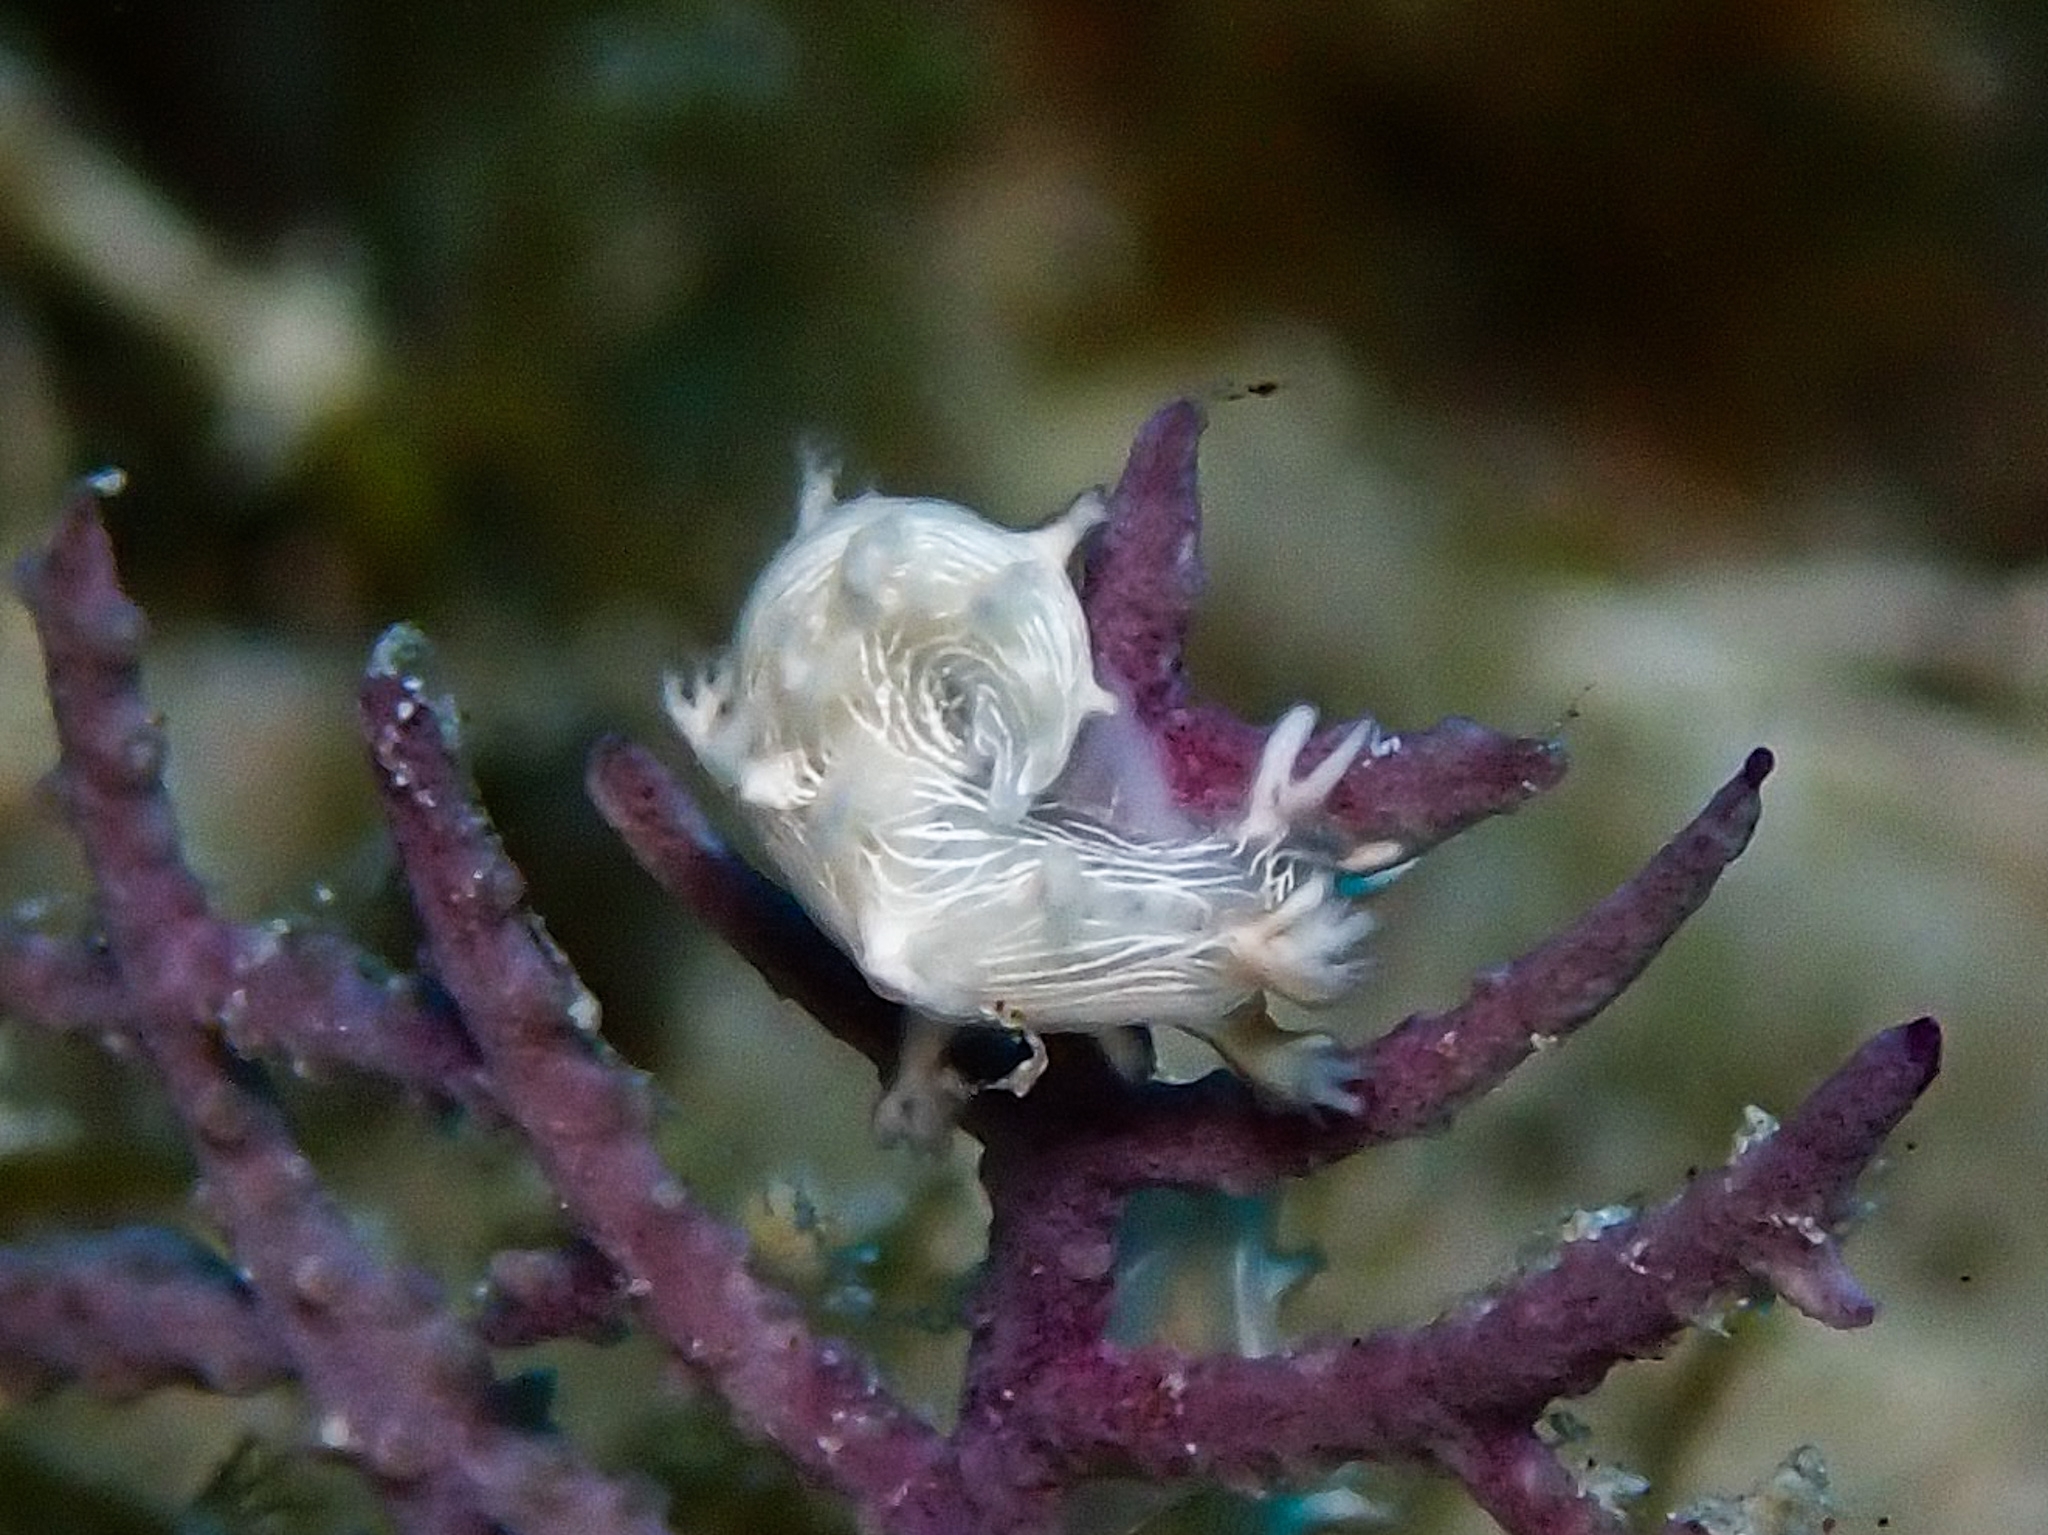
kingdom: Animalia
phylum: Mollusca
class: Gastropoda
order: Nudibranchia
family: Tritoniidae
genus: Tritonicula
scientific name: Tritonicula hamnerorum
